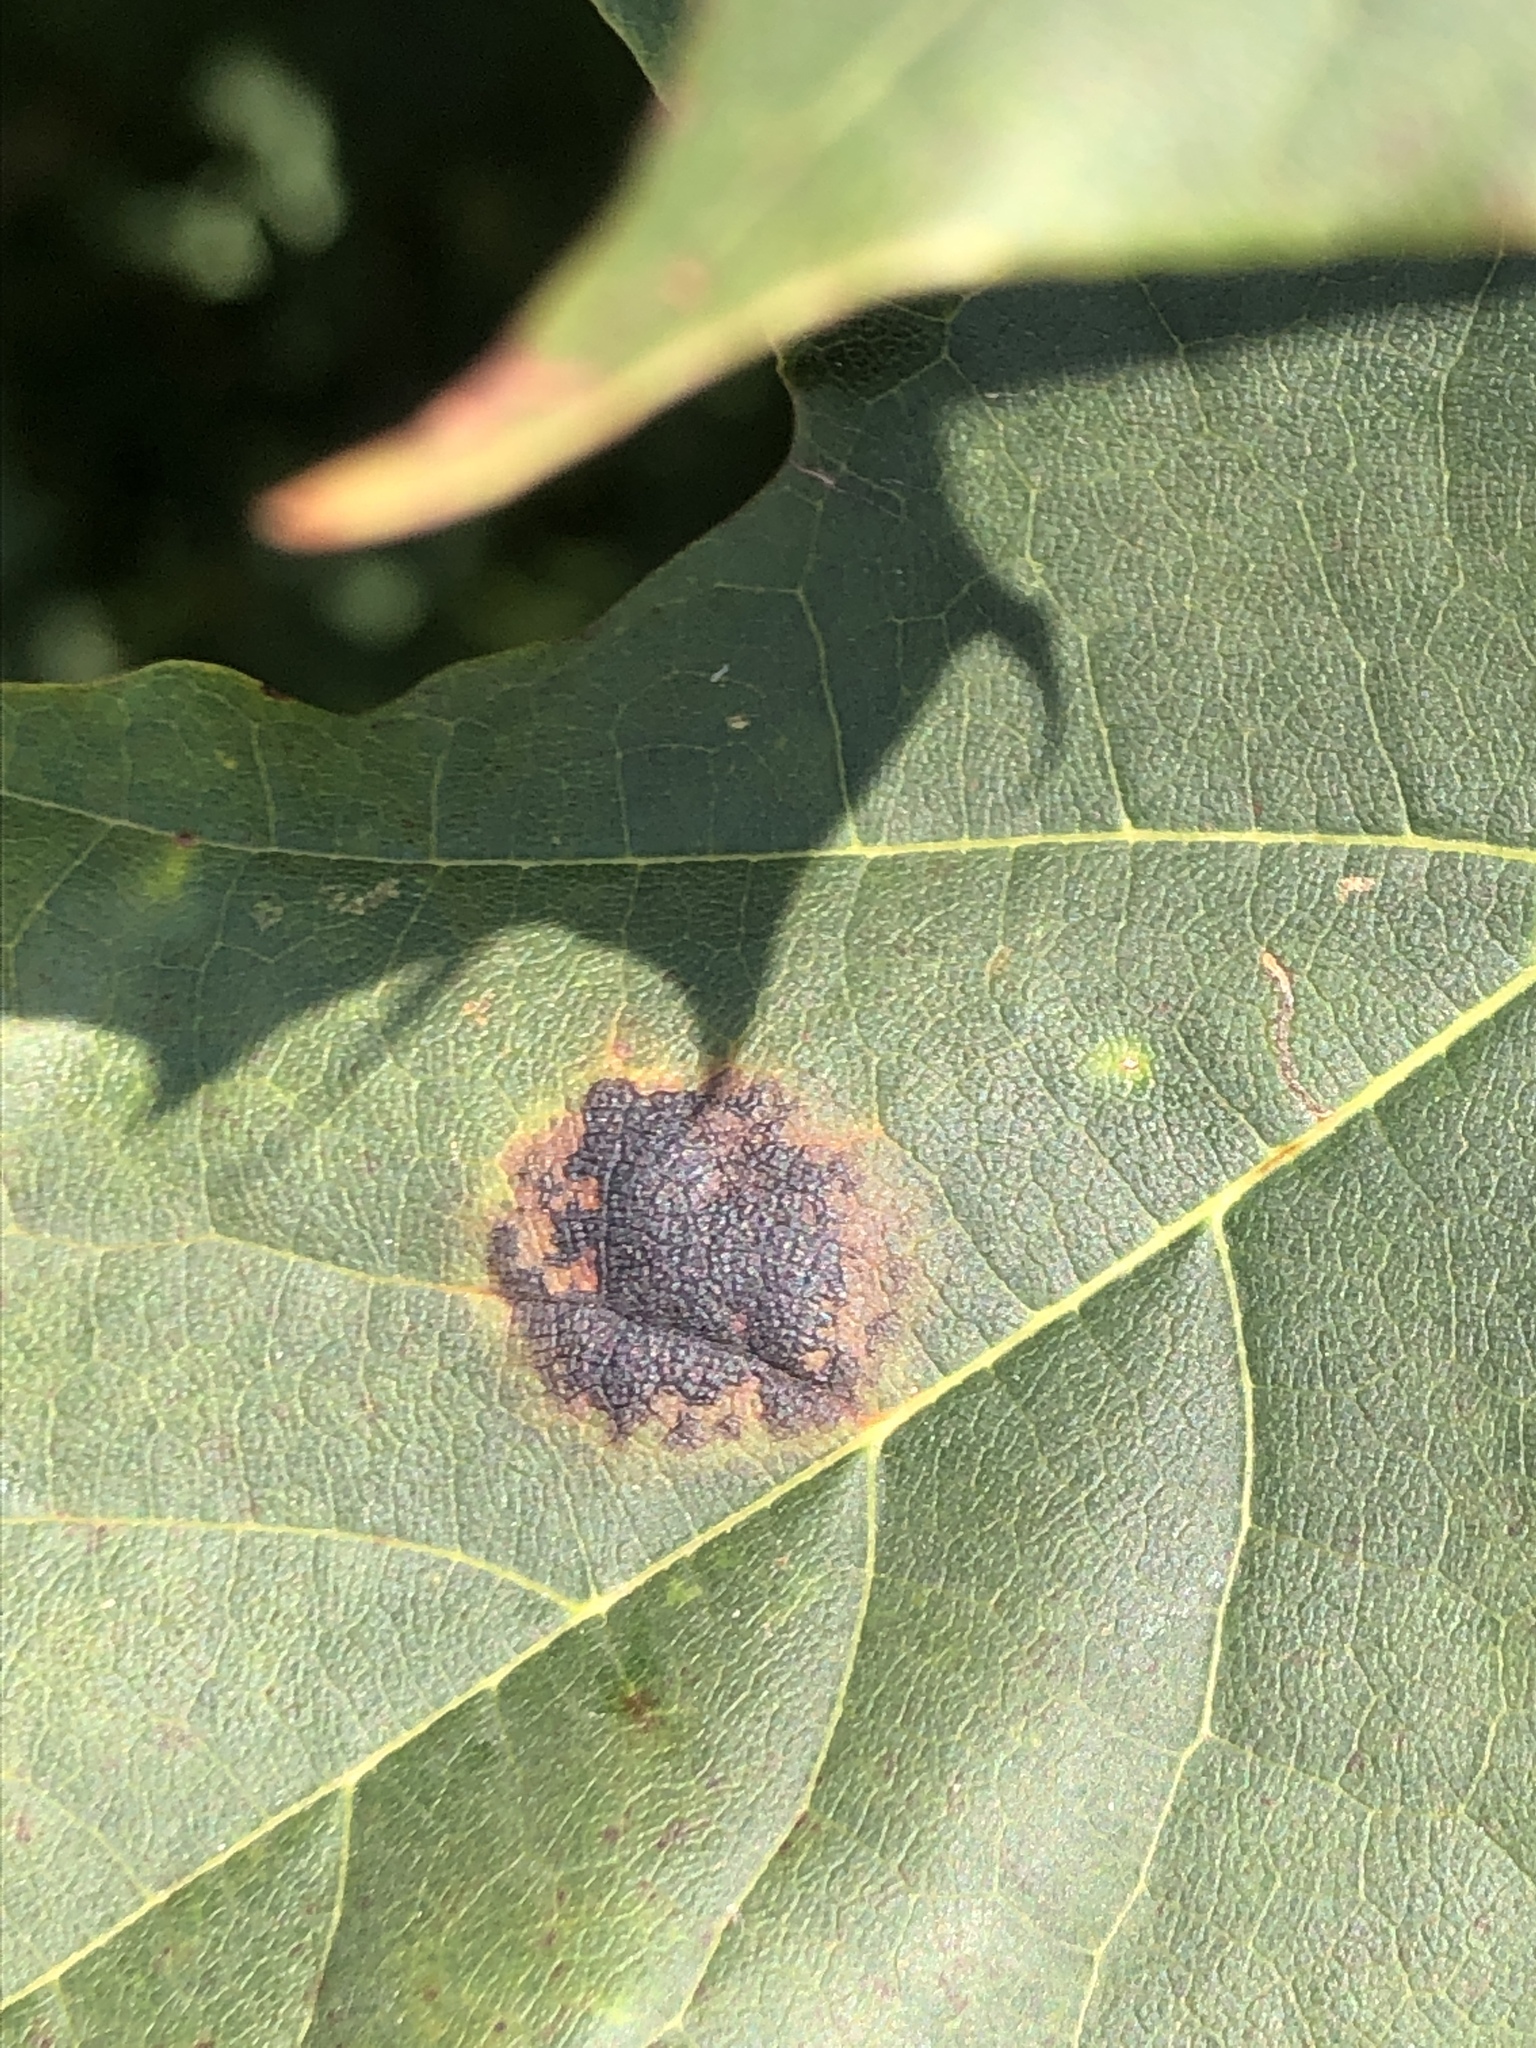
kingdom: Fungi
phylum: Ascomycota
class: Leotiomycetes
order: Rhytismatales
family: Rhytismataceae
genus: Rhytisma
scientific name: Rhytisma acerinum
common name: European tar spot
